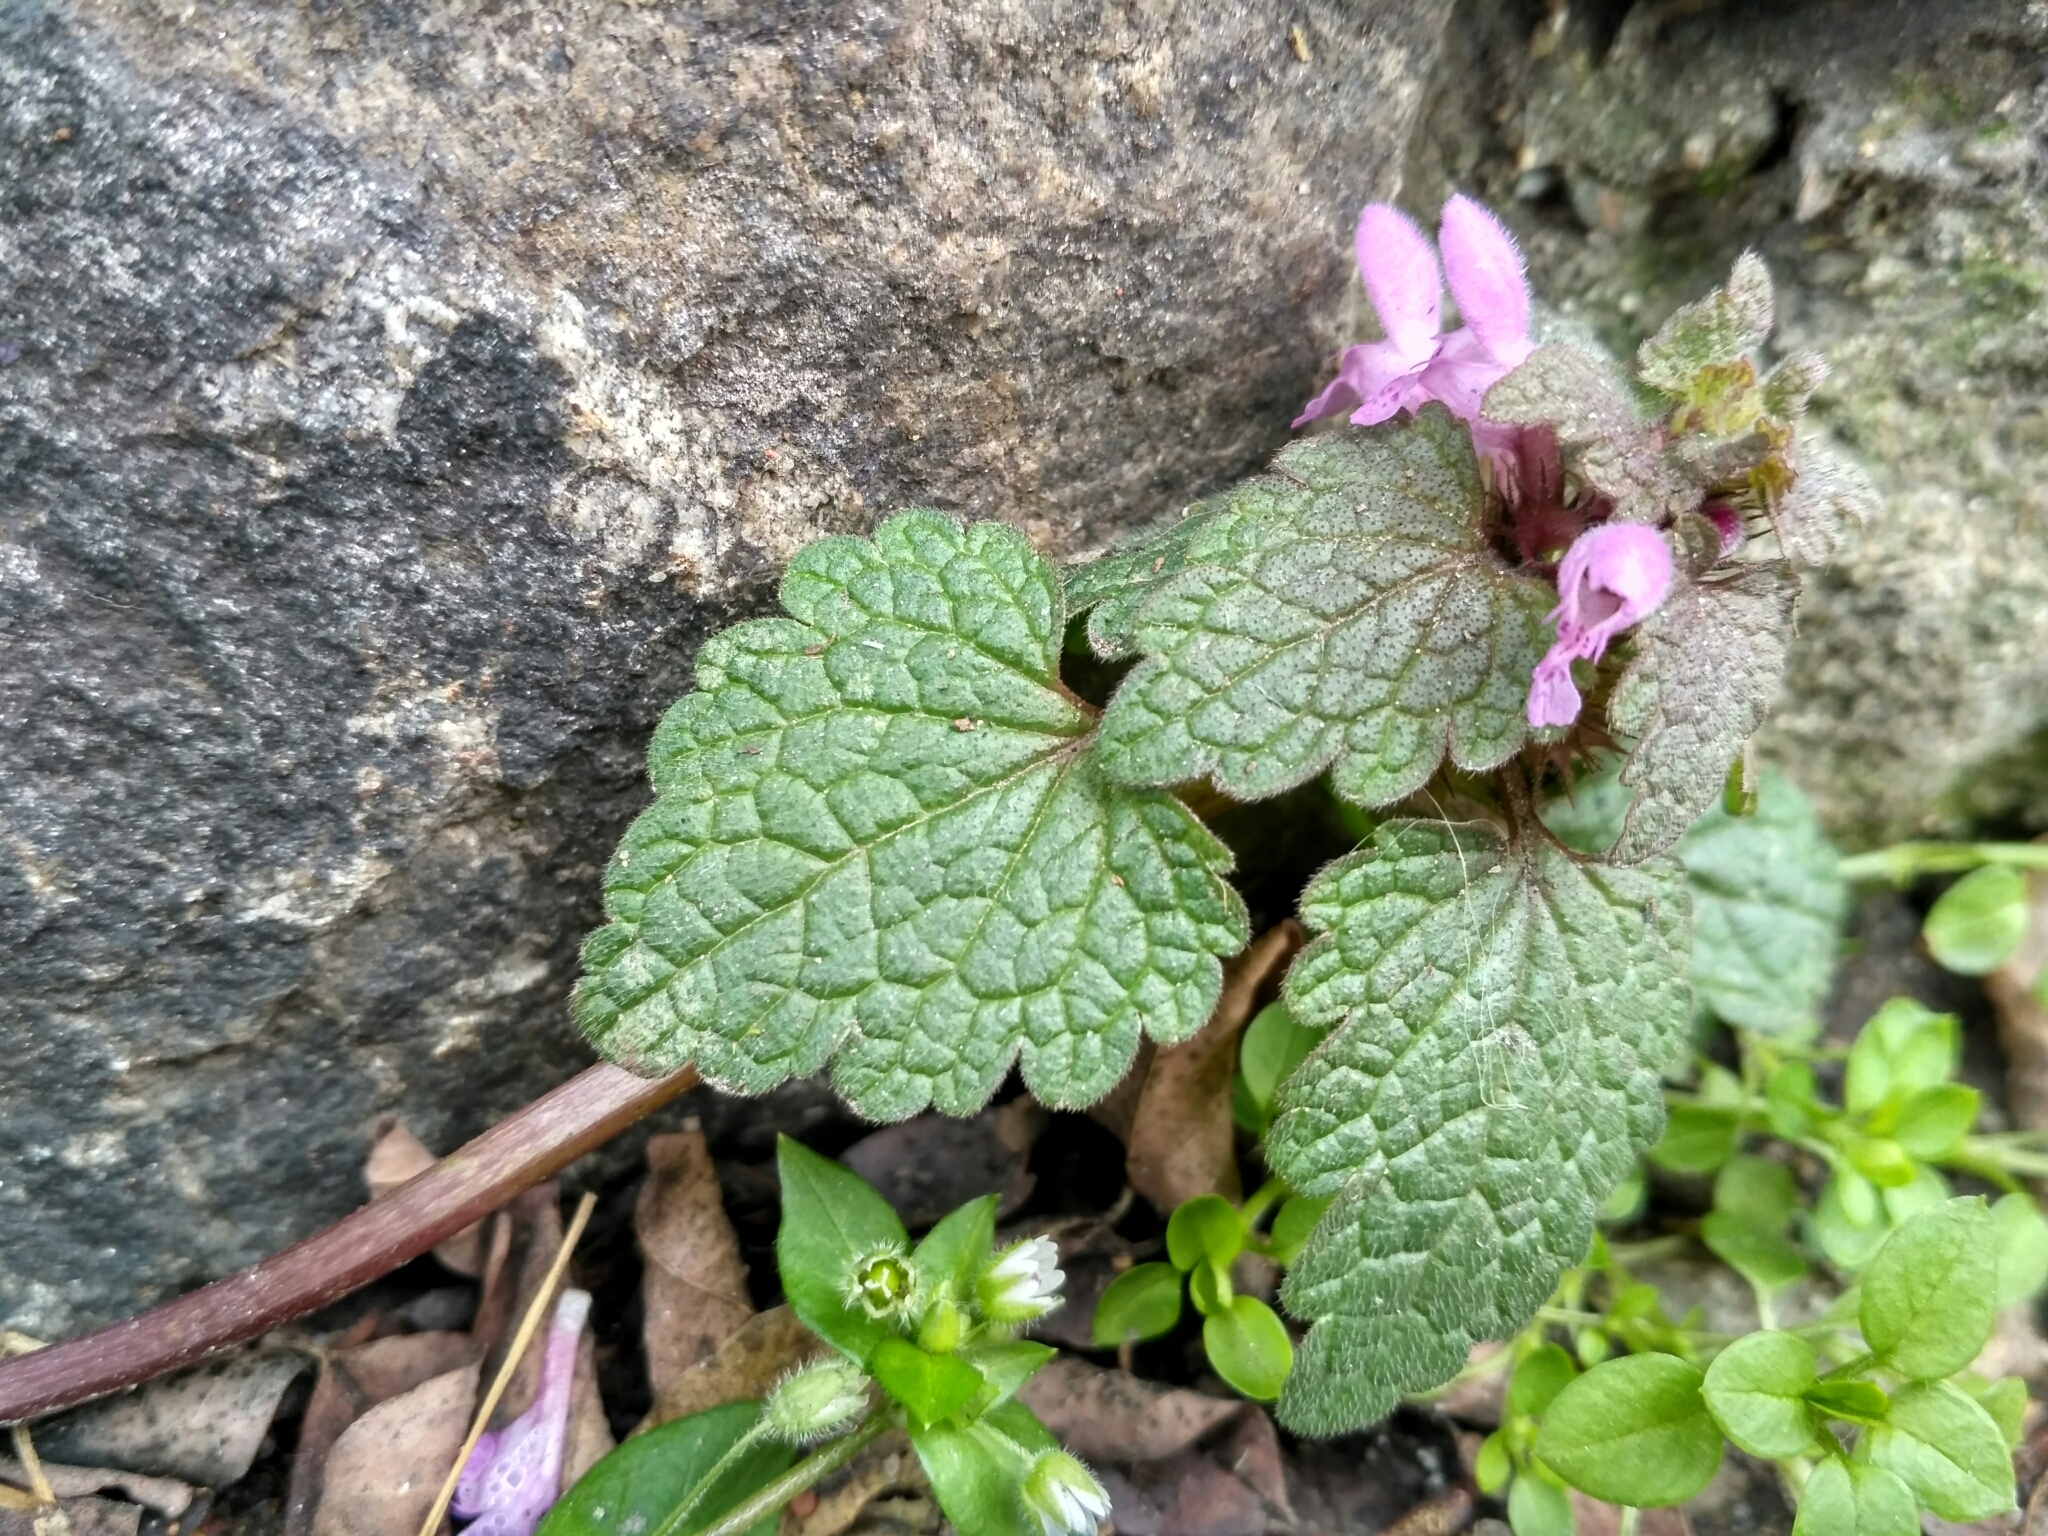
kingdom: Plantae
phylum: Tracheophyta
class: Magnoliopsida
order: Lamiales
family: Lamiaceae
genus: Lamium
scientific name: Lamium purpureum
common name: Red dead-nettle
